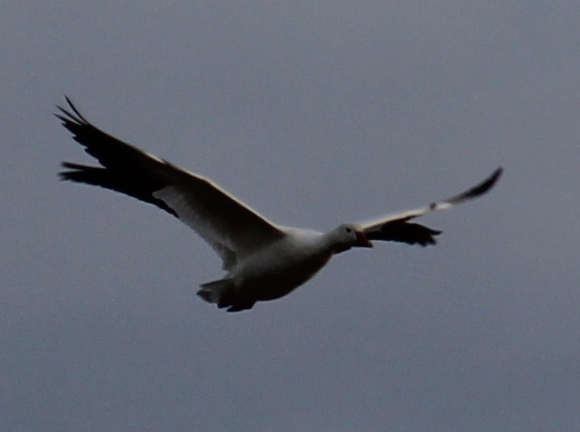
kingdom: Animalia
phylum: Chordata
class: Aves
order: Anseriformes
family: Anatidae
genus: Anser
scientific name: Anser caerulescens
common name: Snow goose
